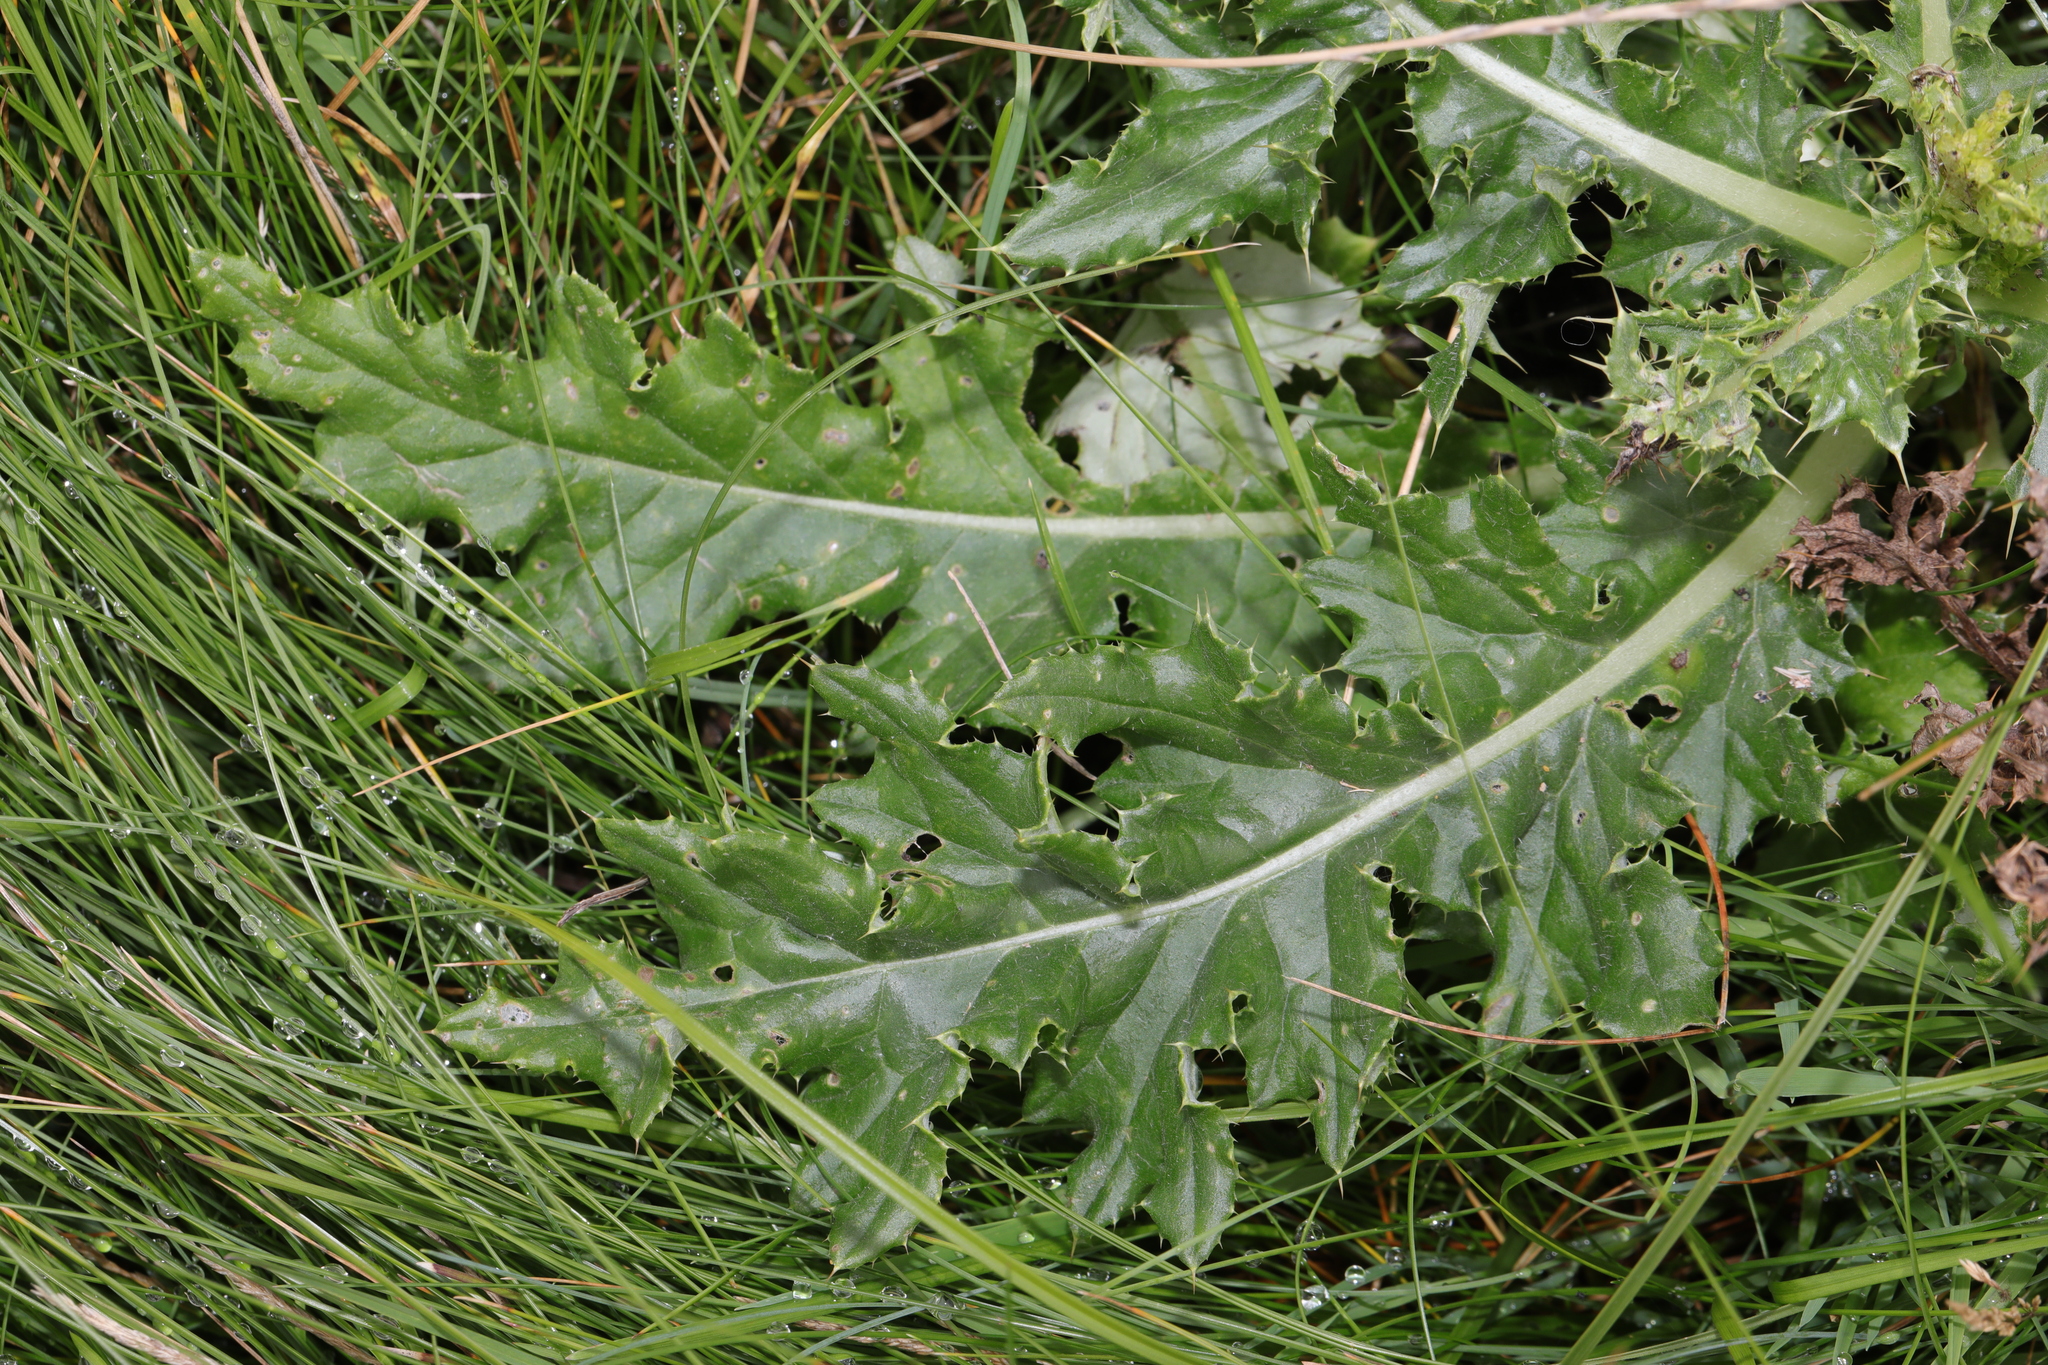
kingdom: Plantae
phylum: Tracheophyta
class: Magnoliopsida
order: Asterales
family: Asteraceae
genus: Cirsium
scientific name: Cirsium arvense
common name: Creeping thistle
